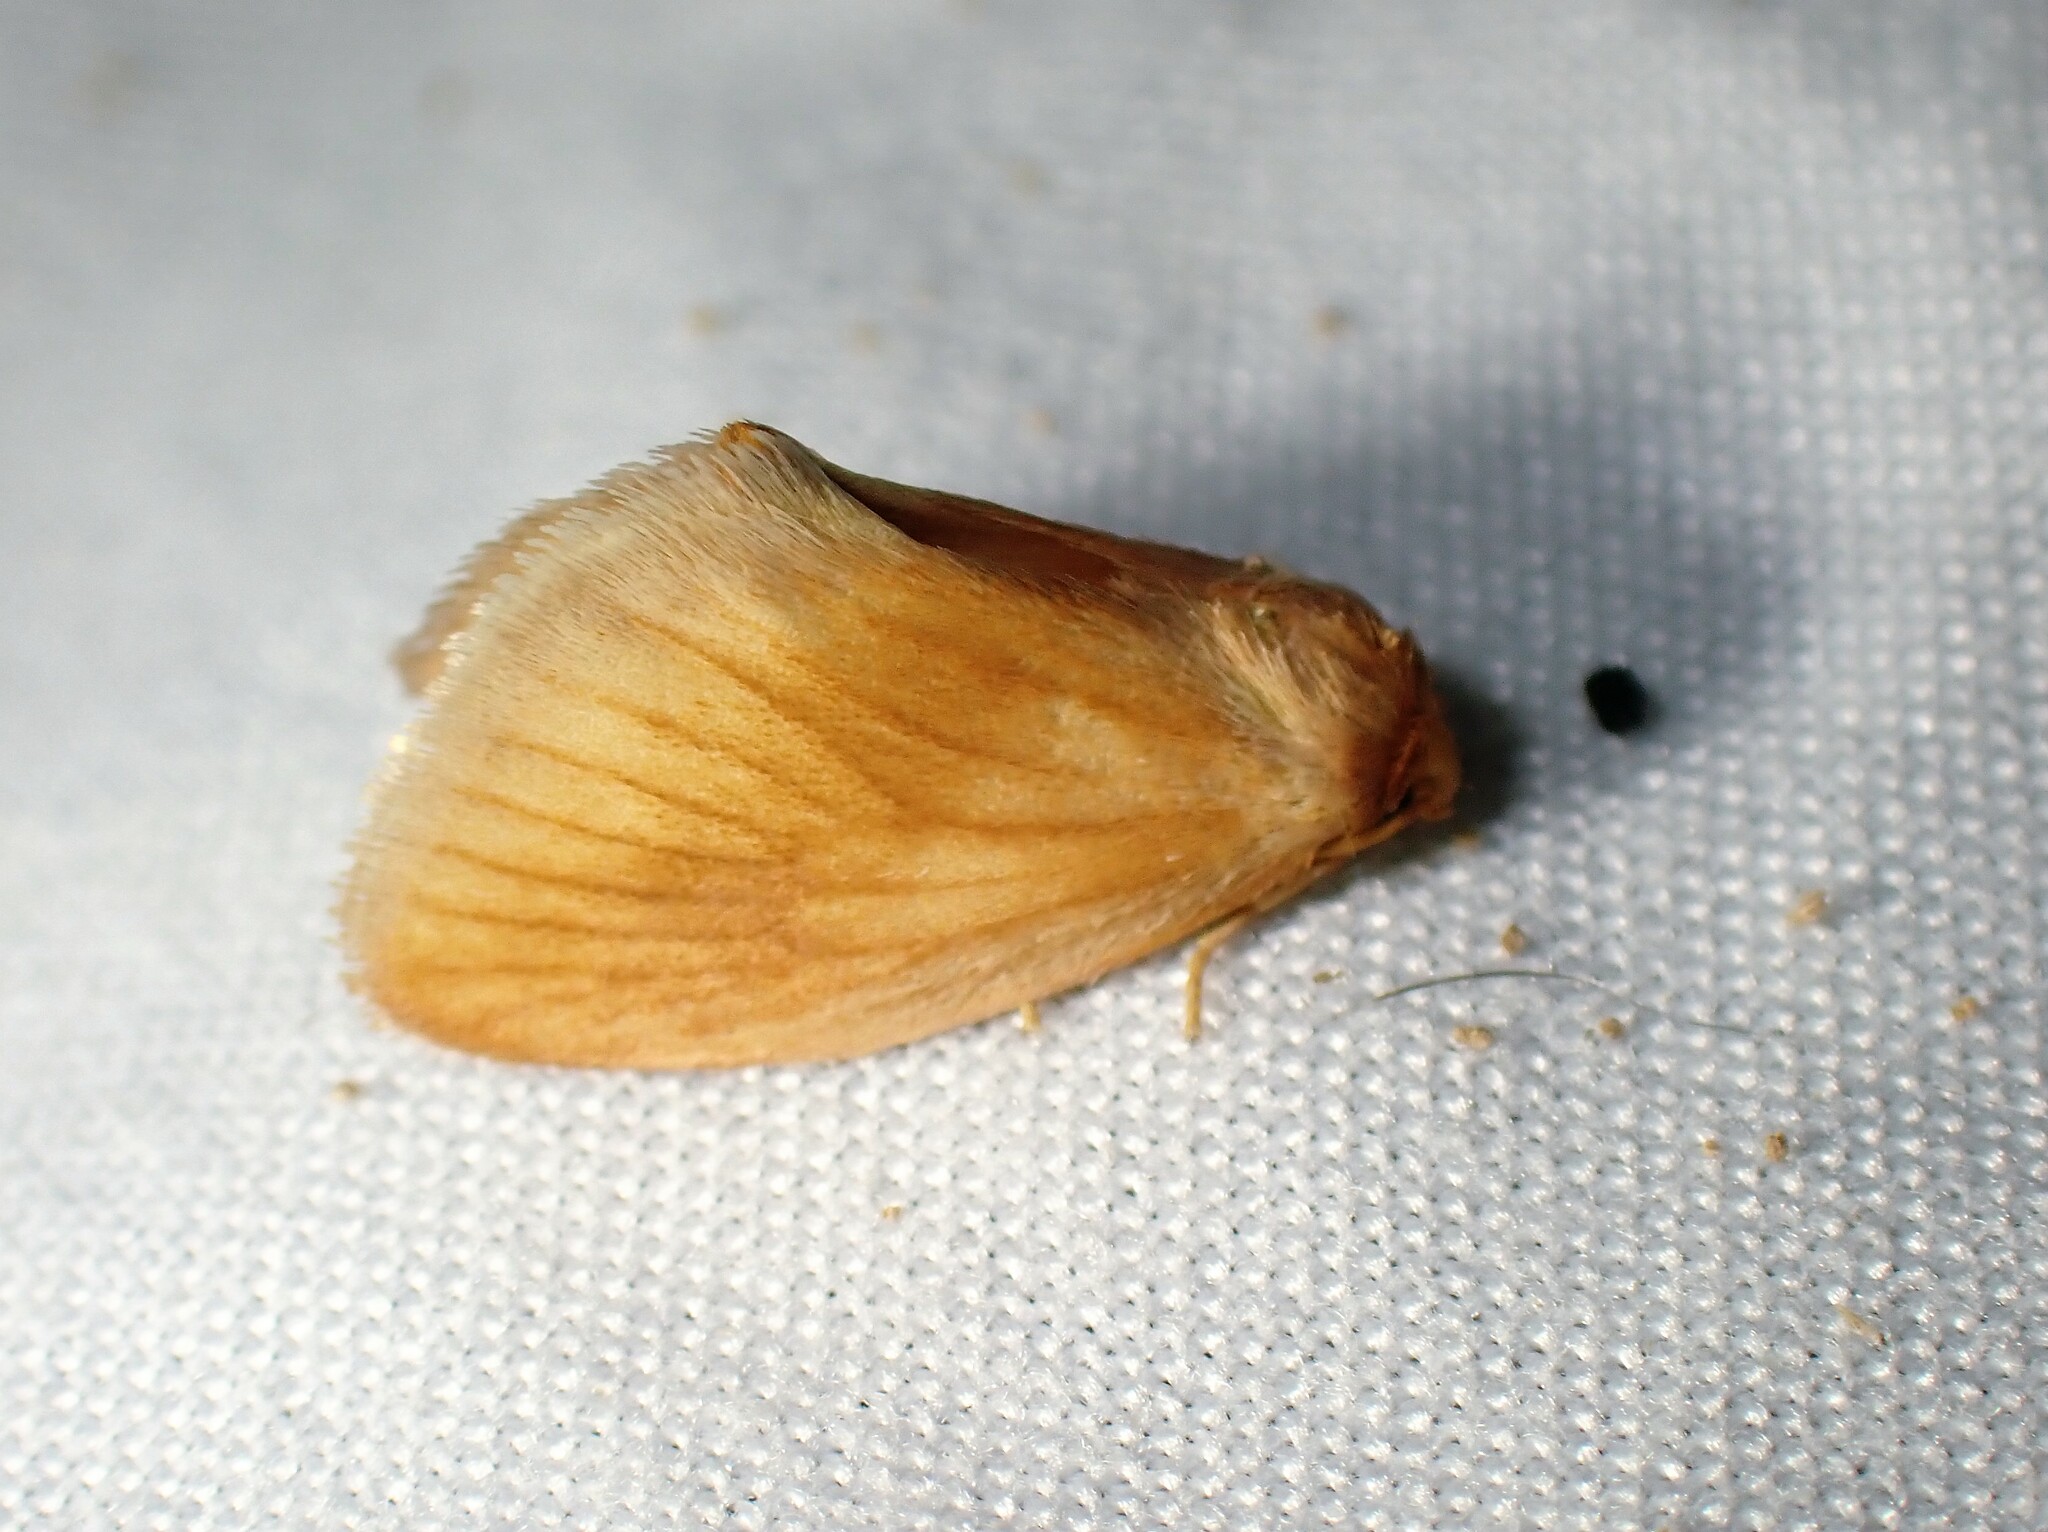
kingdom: Animalia
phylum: Arthropoda
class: Insecta
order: Lepidoptera
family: Limacodidae
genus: Tortricidia
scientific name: Tortricidia testacea
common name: Early button slug moth
